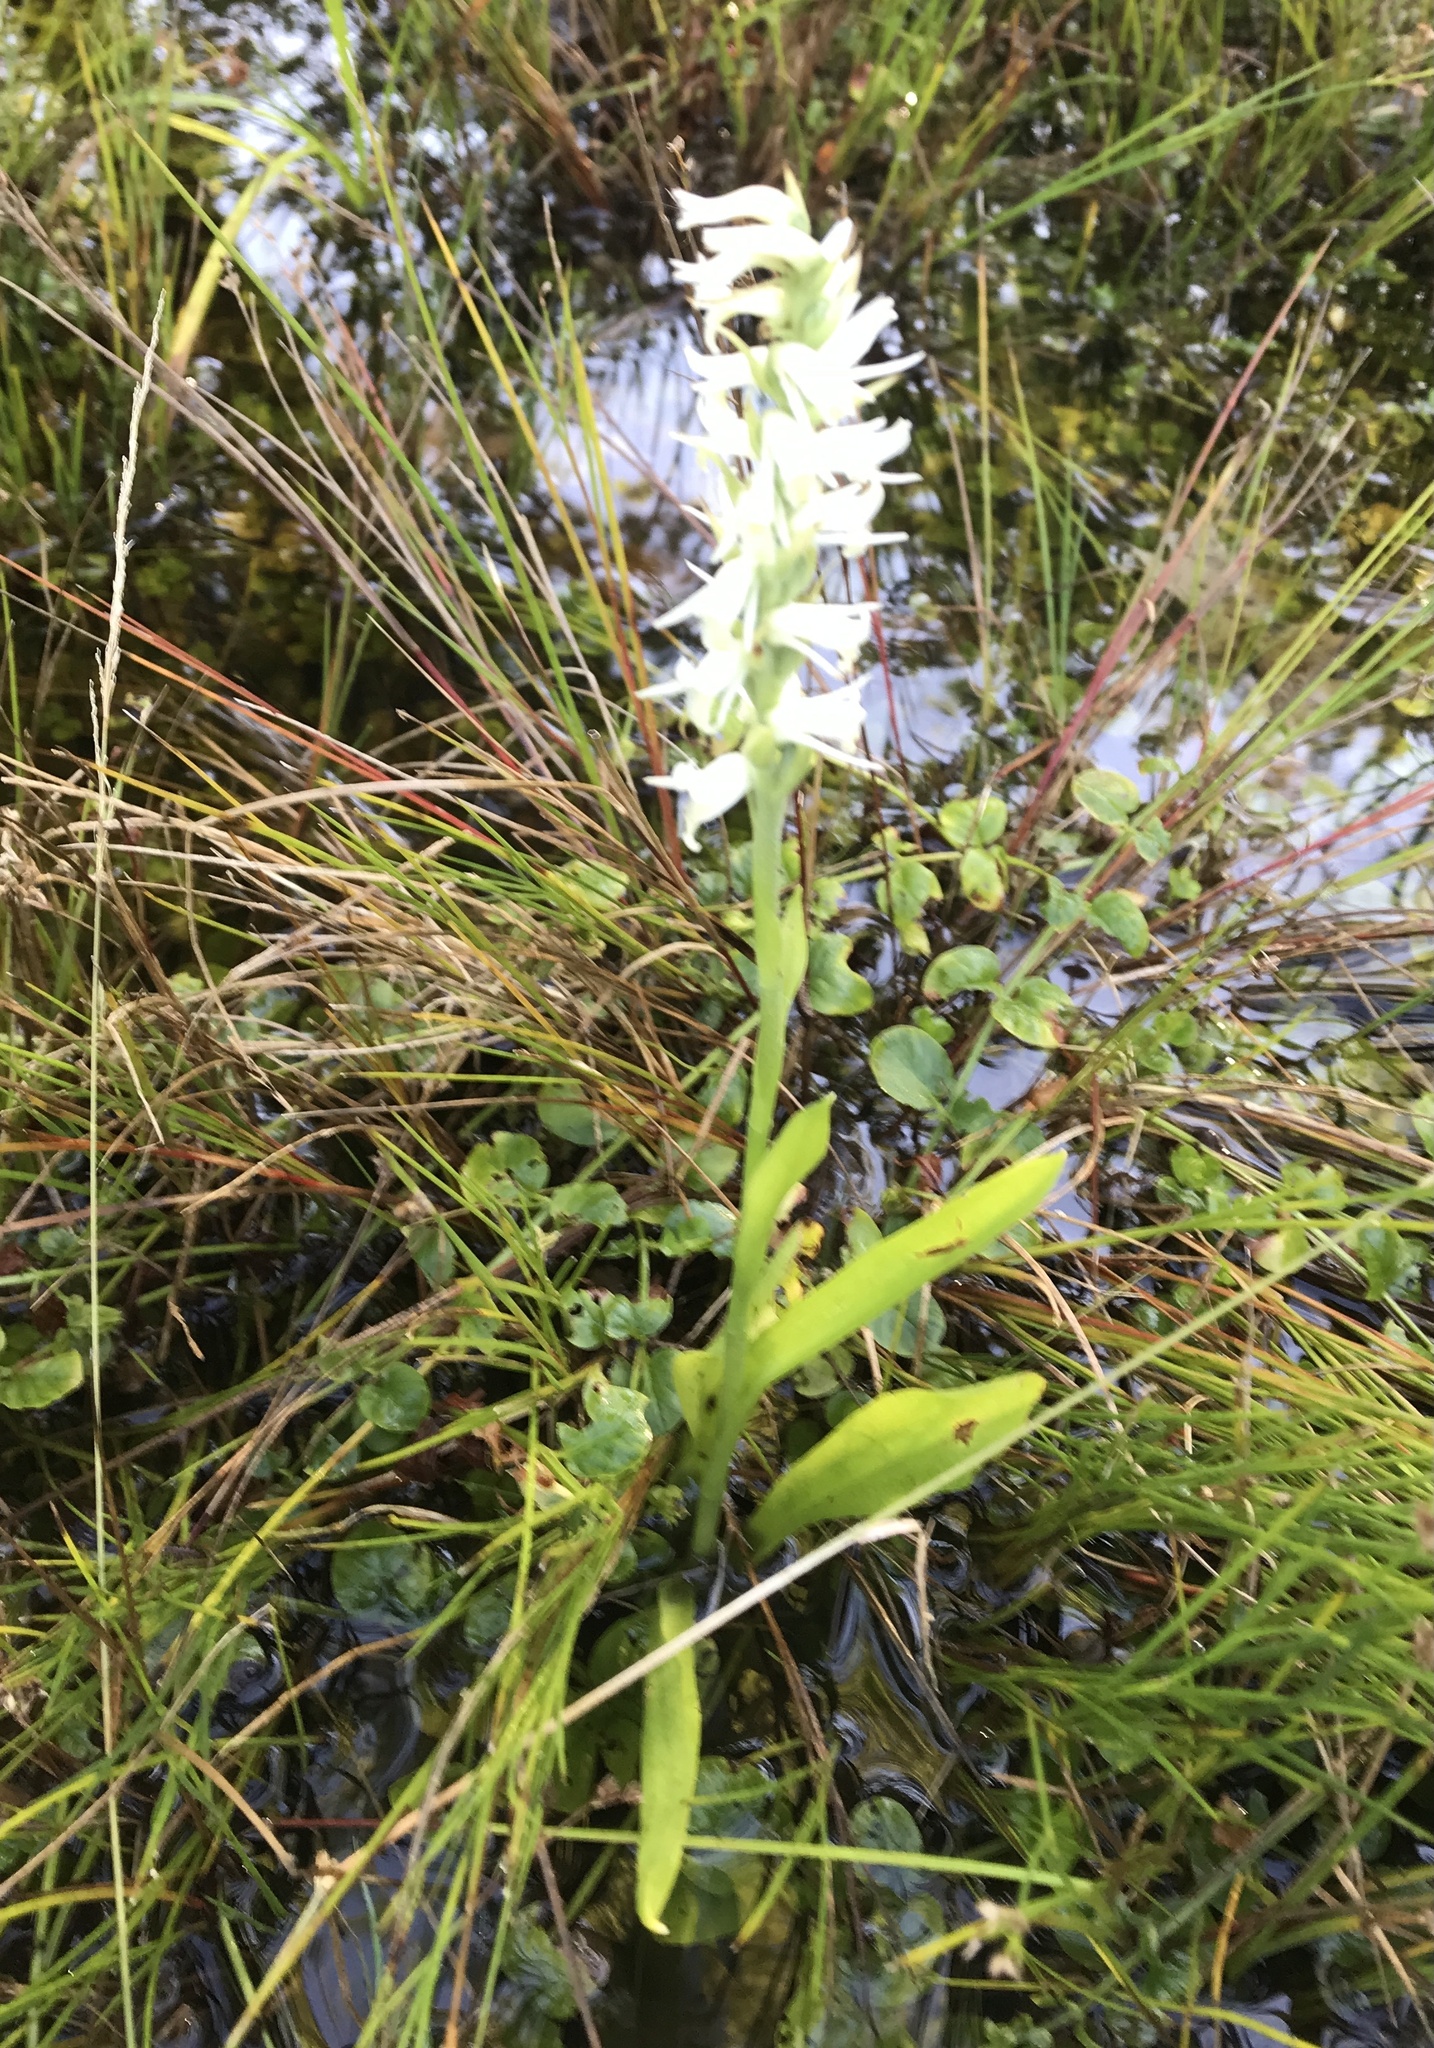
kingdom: Plantae
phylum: Tracheophyta
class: Liliopsida
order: Asparagales
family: Orchidaceae
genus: Spiranthes
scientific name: Spiranthes odorata
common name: Marsh ladies'-tresses
